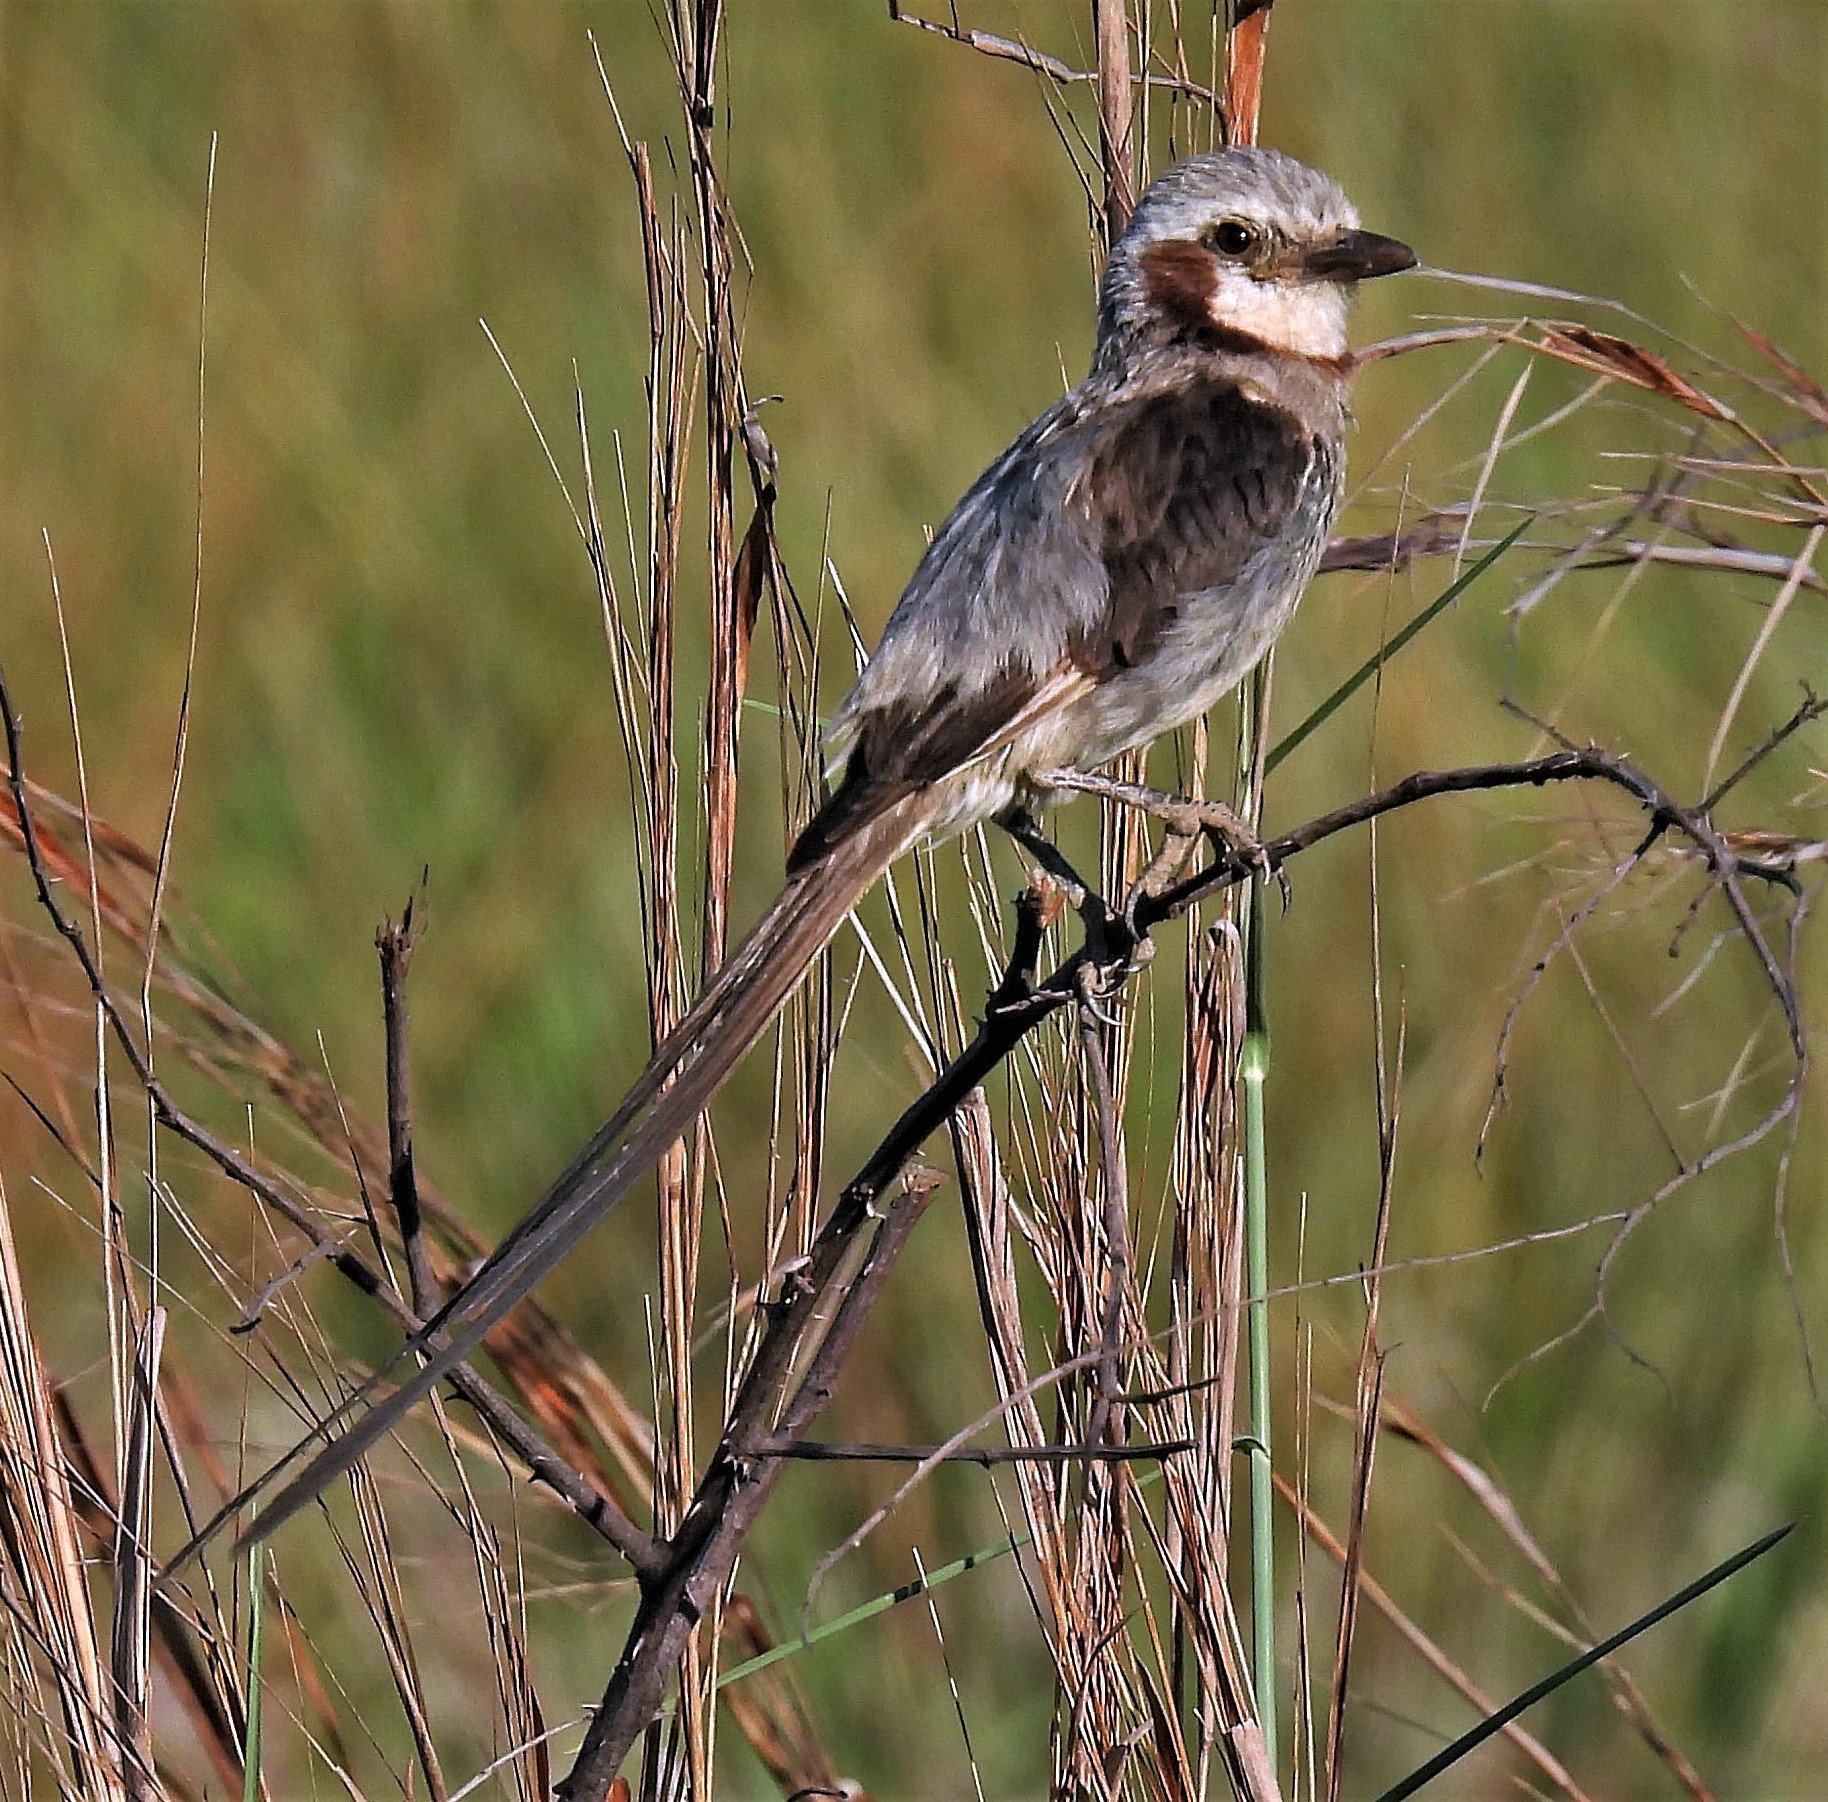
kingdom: Animalia
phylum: Chordata
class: Aves
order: Passeriformes
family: Tyrannidae
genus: Gubernetes
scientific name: Gubernetes yetapa
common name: Streamer-tailed tyrant
